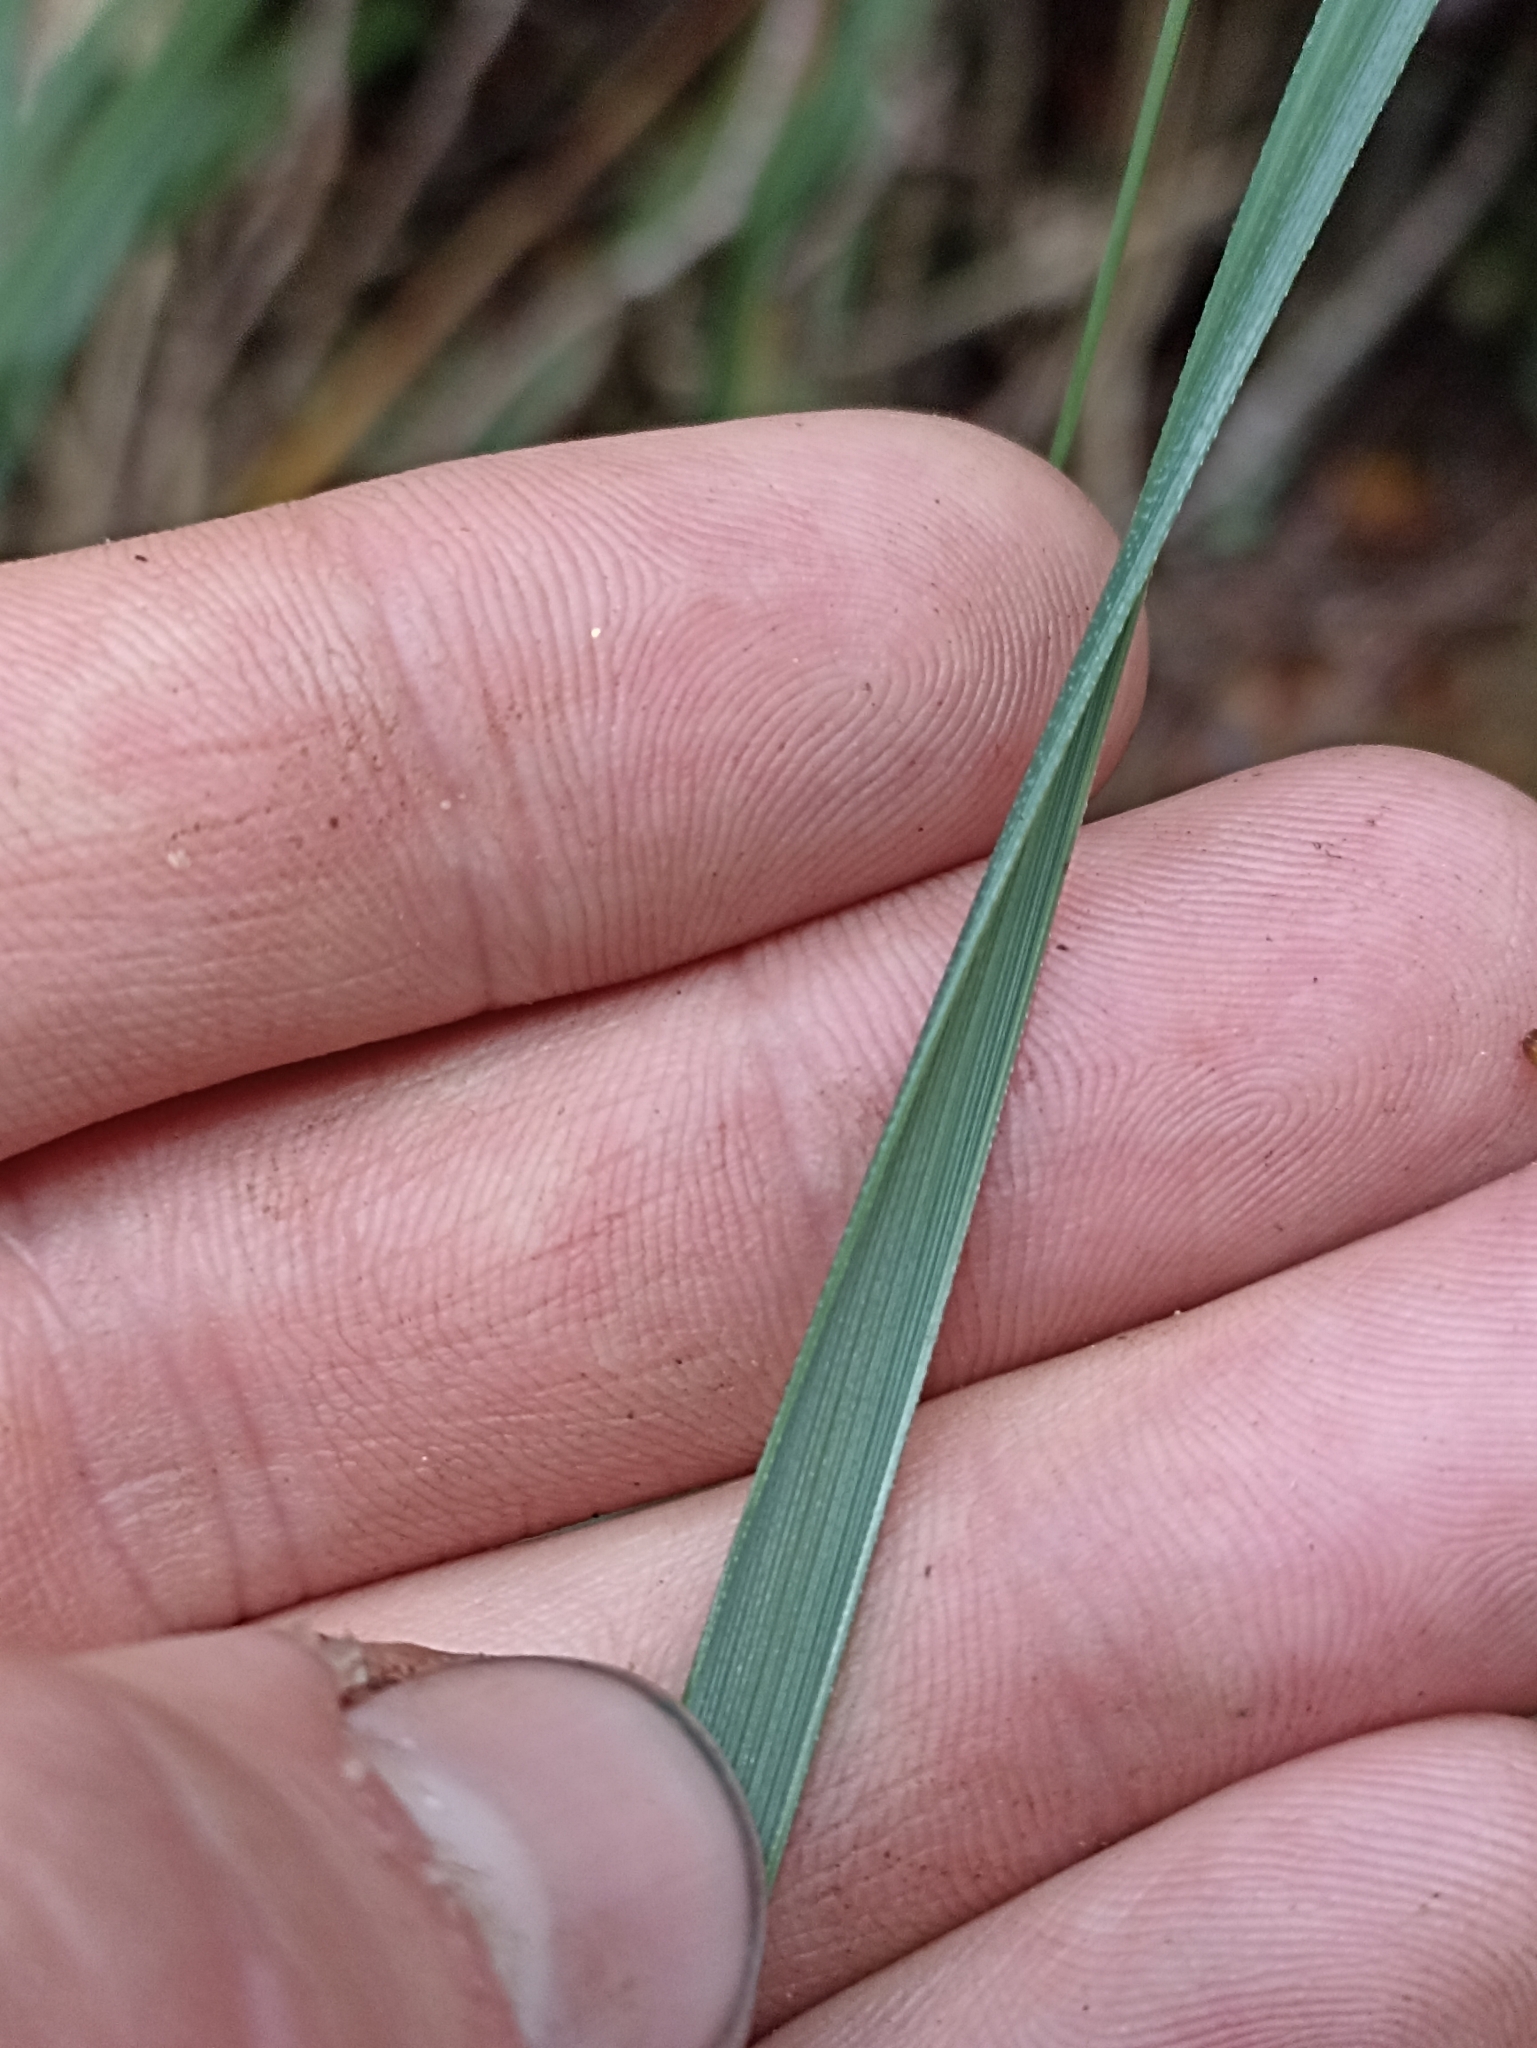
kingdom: Plantae
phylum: Tracheophyta
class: Liliopsida
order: Poales
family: Cyperaceae
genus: Gahnia
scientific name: Gahnia procera
